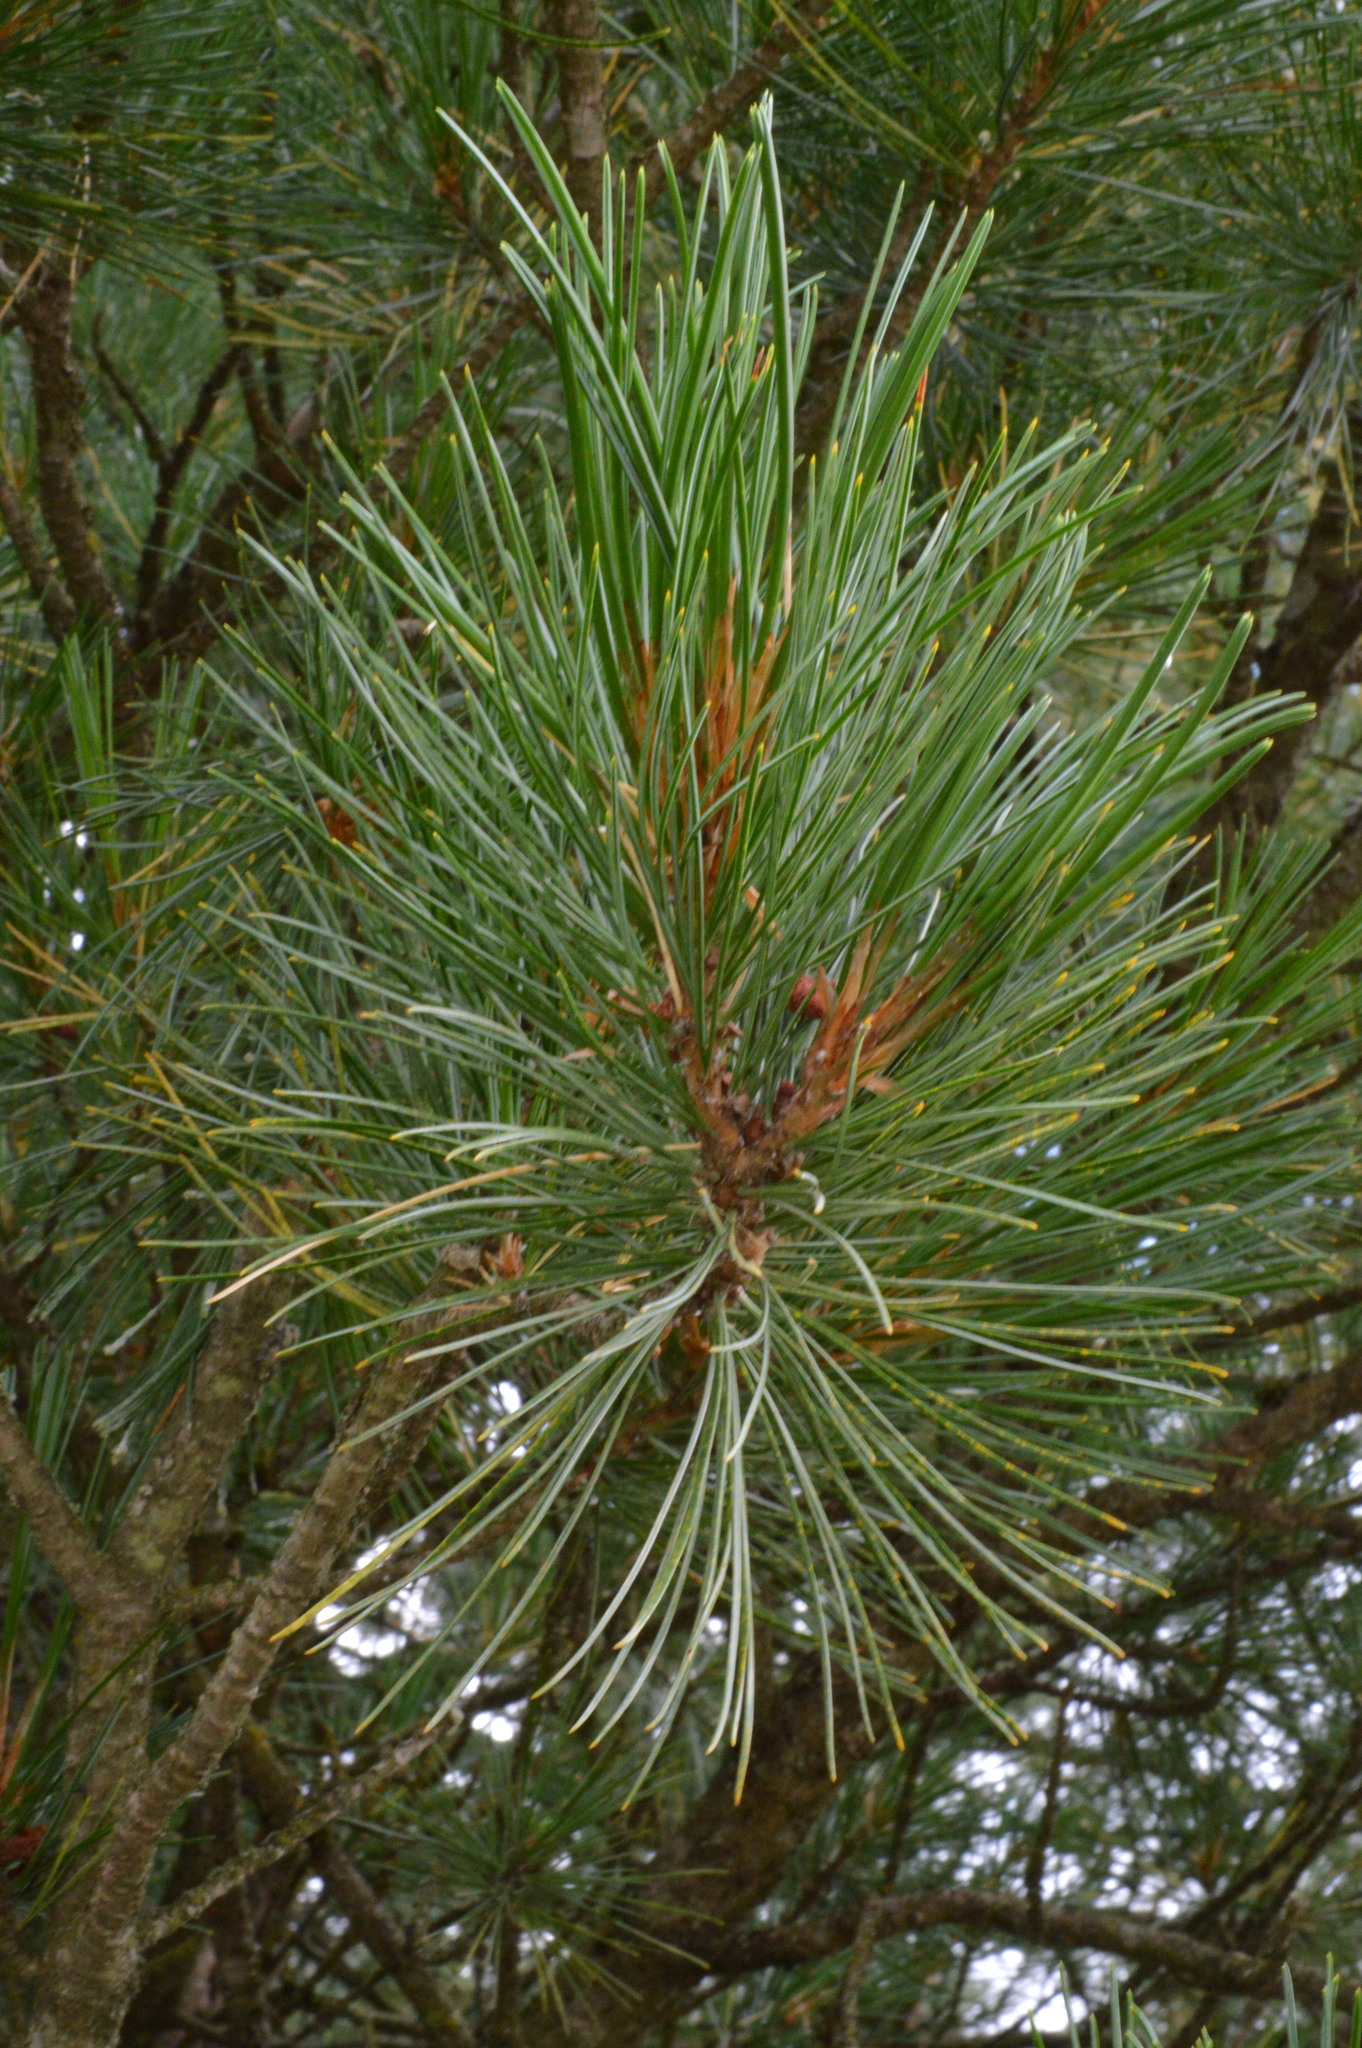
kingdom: Plantae
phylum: Tracheophyta
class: Pinopsida
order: Pinales
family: Pinaceae
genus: Pinus
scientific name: Pinus cembra
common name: Arolla pine
